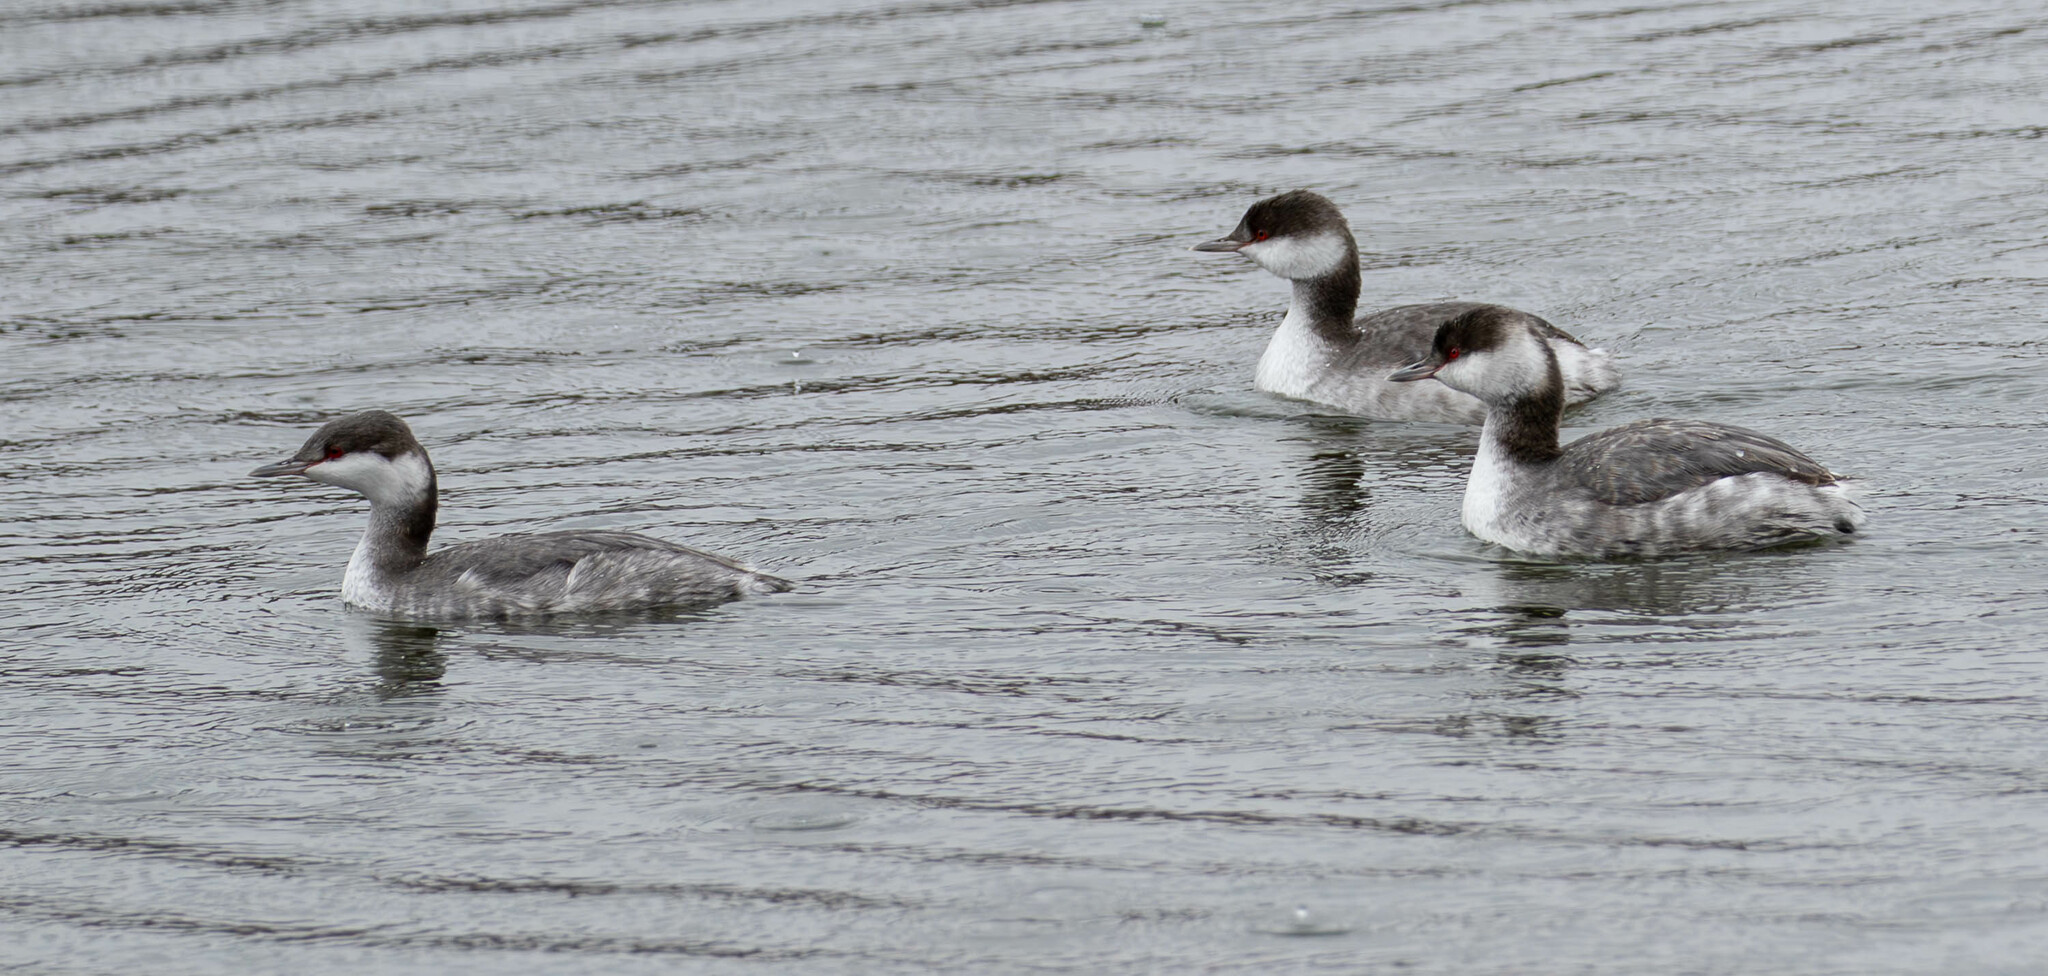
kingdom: Animalia
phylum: Chordata
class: Aves
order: Podicipediformes
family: Podicipedidae
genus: Podiceps
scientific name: Podiceps auritus
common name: Horned grebe
